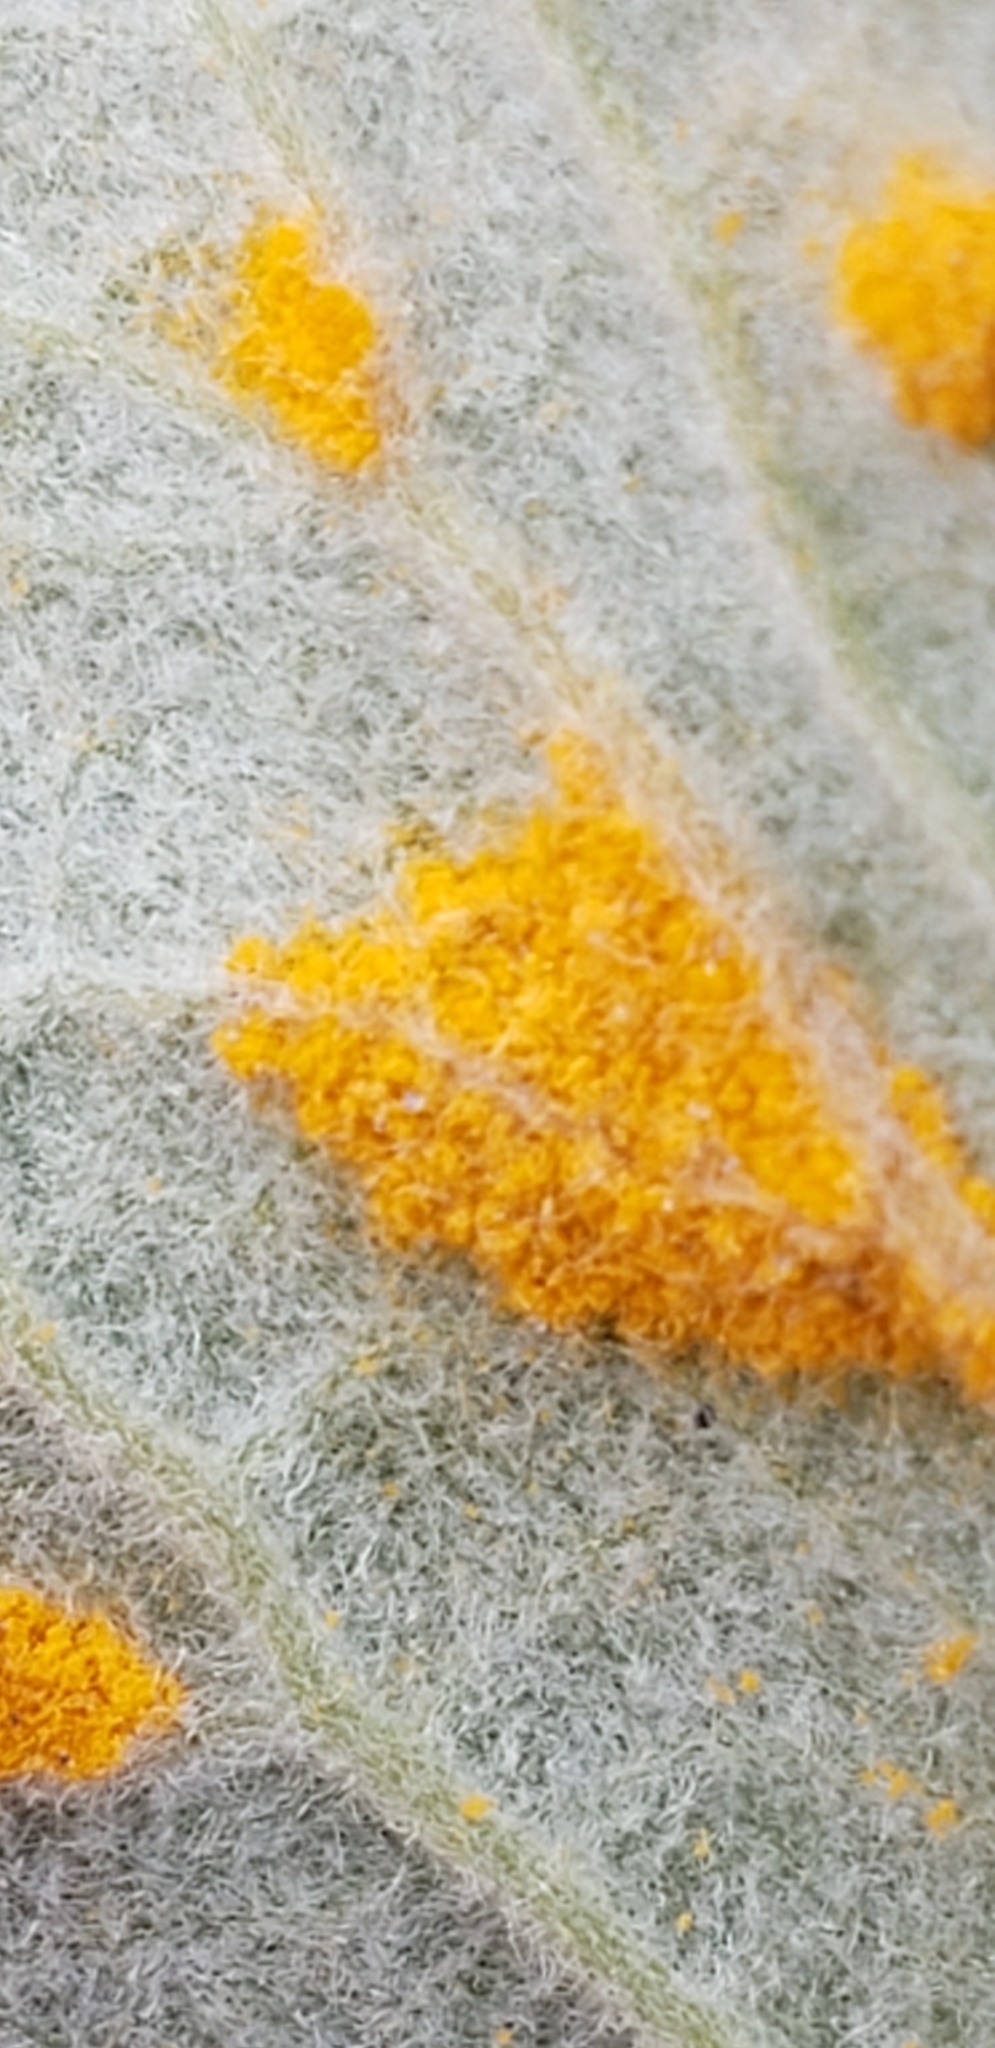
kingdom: Fungi
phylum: Basidiomycota
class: Pucciniomycetes
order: Pucciniales
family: Melampsoraceae
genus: Melampsora
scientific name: Melampsora epitea
